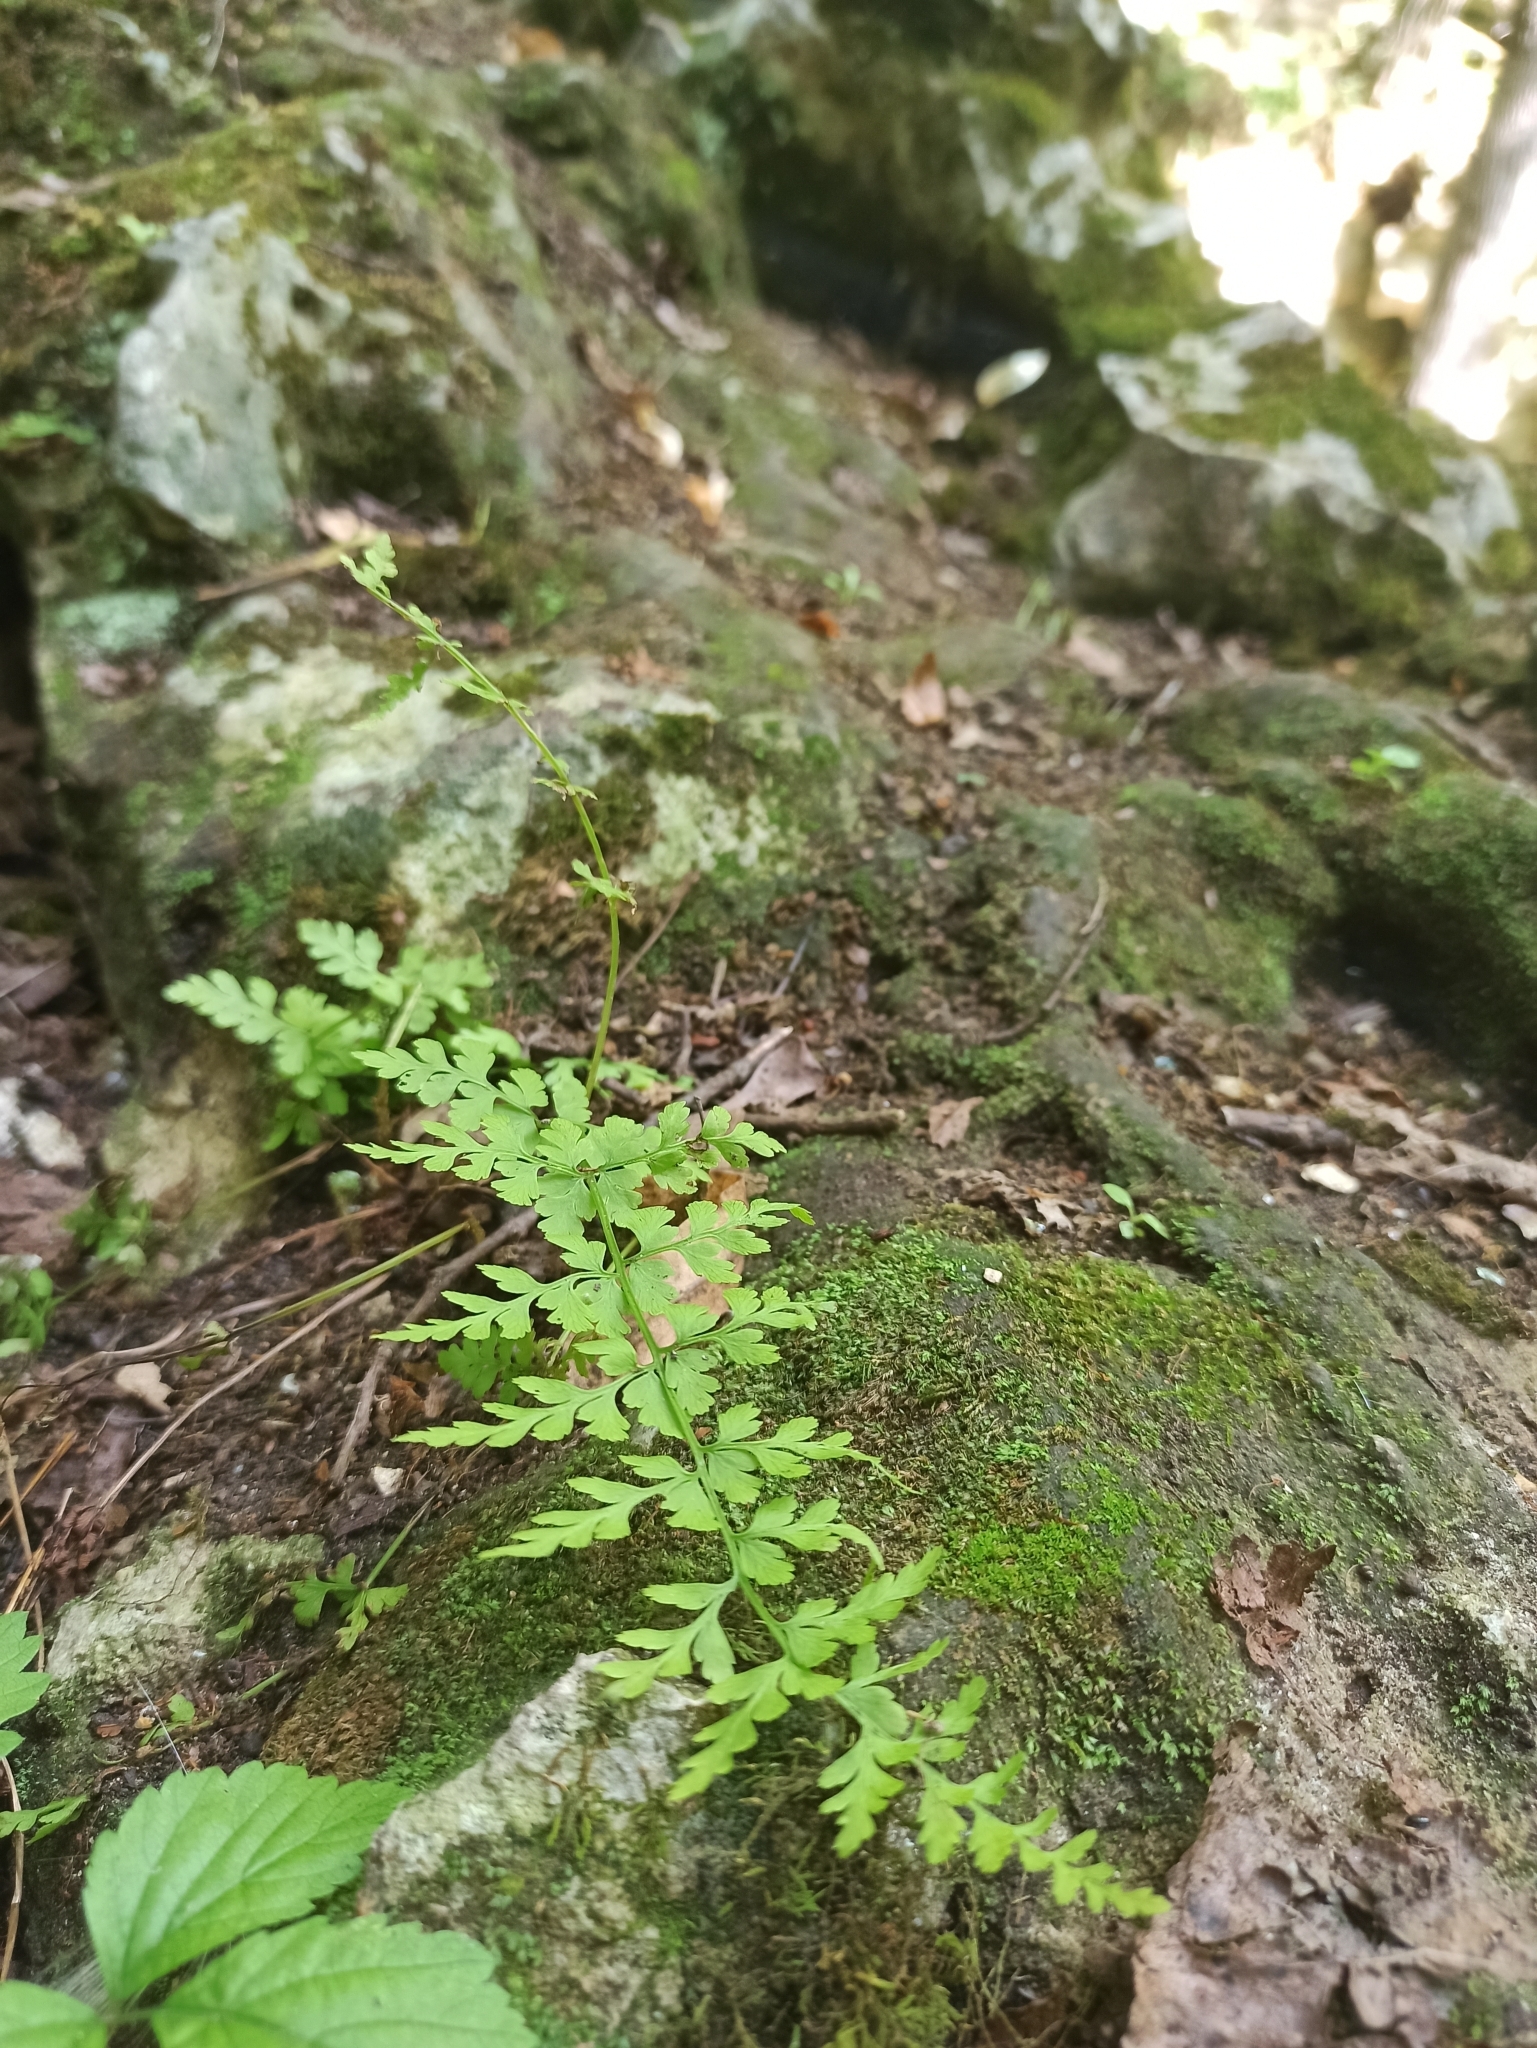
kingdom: Plantae
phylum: Tracheophyta
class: Polypodiopsida
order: Polypodiales
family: Cystopteridaceae
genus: Cystopteris
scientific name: Cystopteris fragilis
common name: Brittle bladder fern
